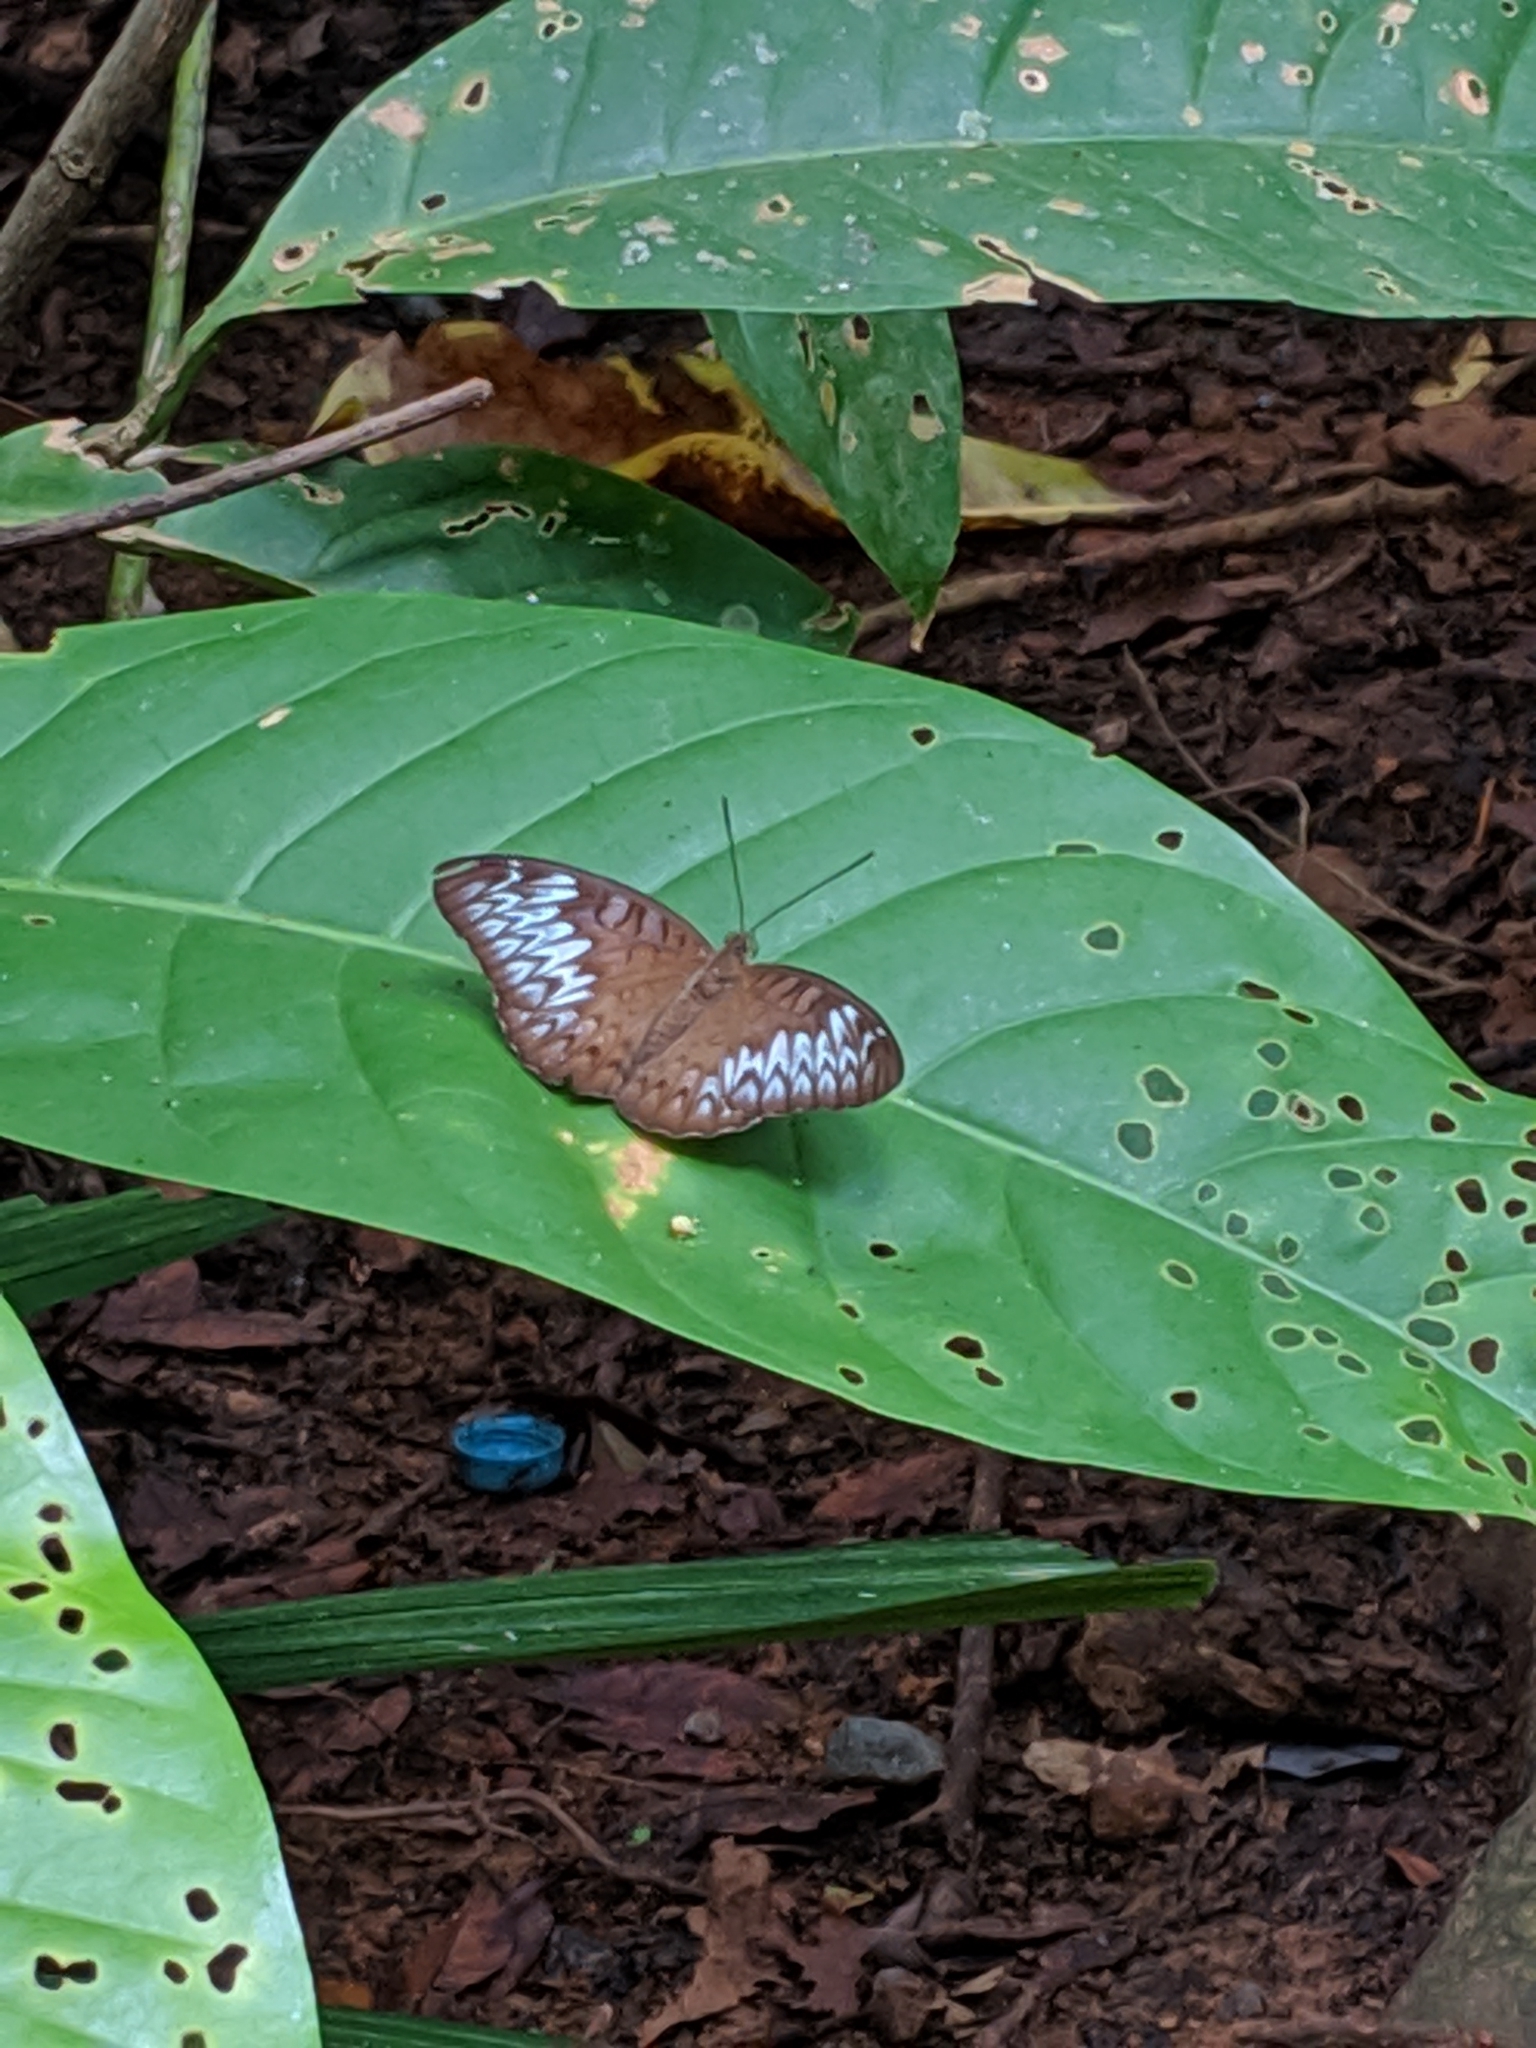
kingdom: Animalia
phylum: Arthropoda
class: Insecta
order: Lepidoptera
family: Nymphalidae
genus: Tanaecia
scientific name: Tanaecia pelea
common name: Malay viscount
